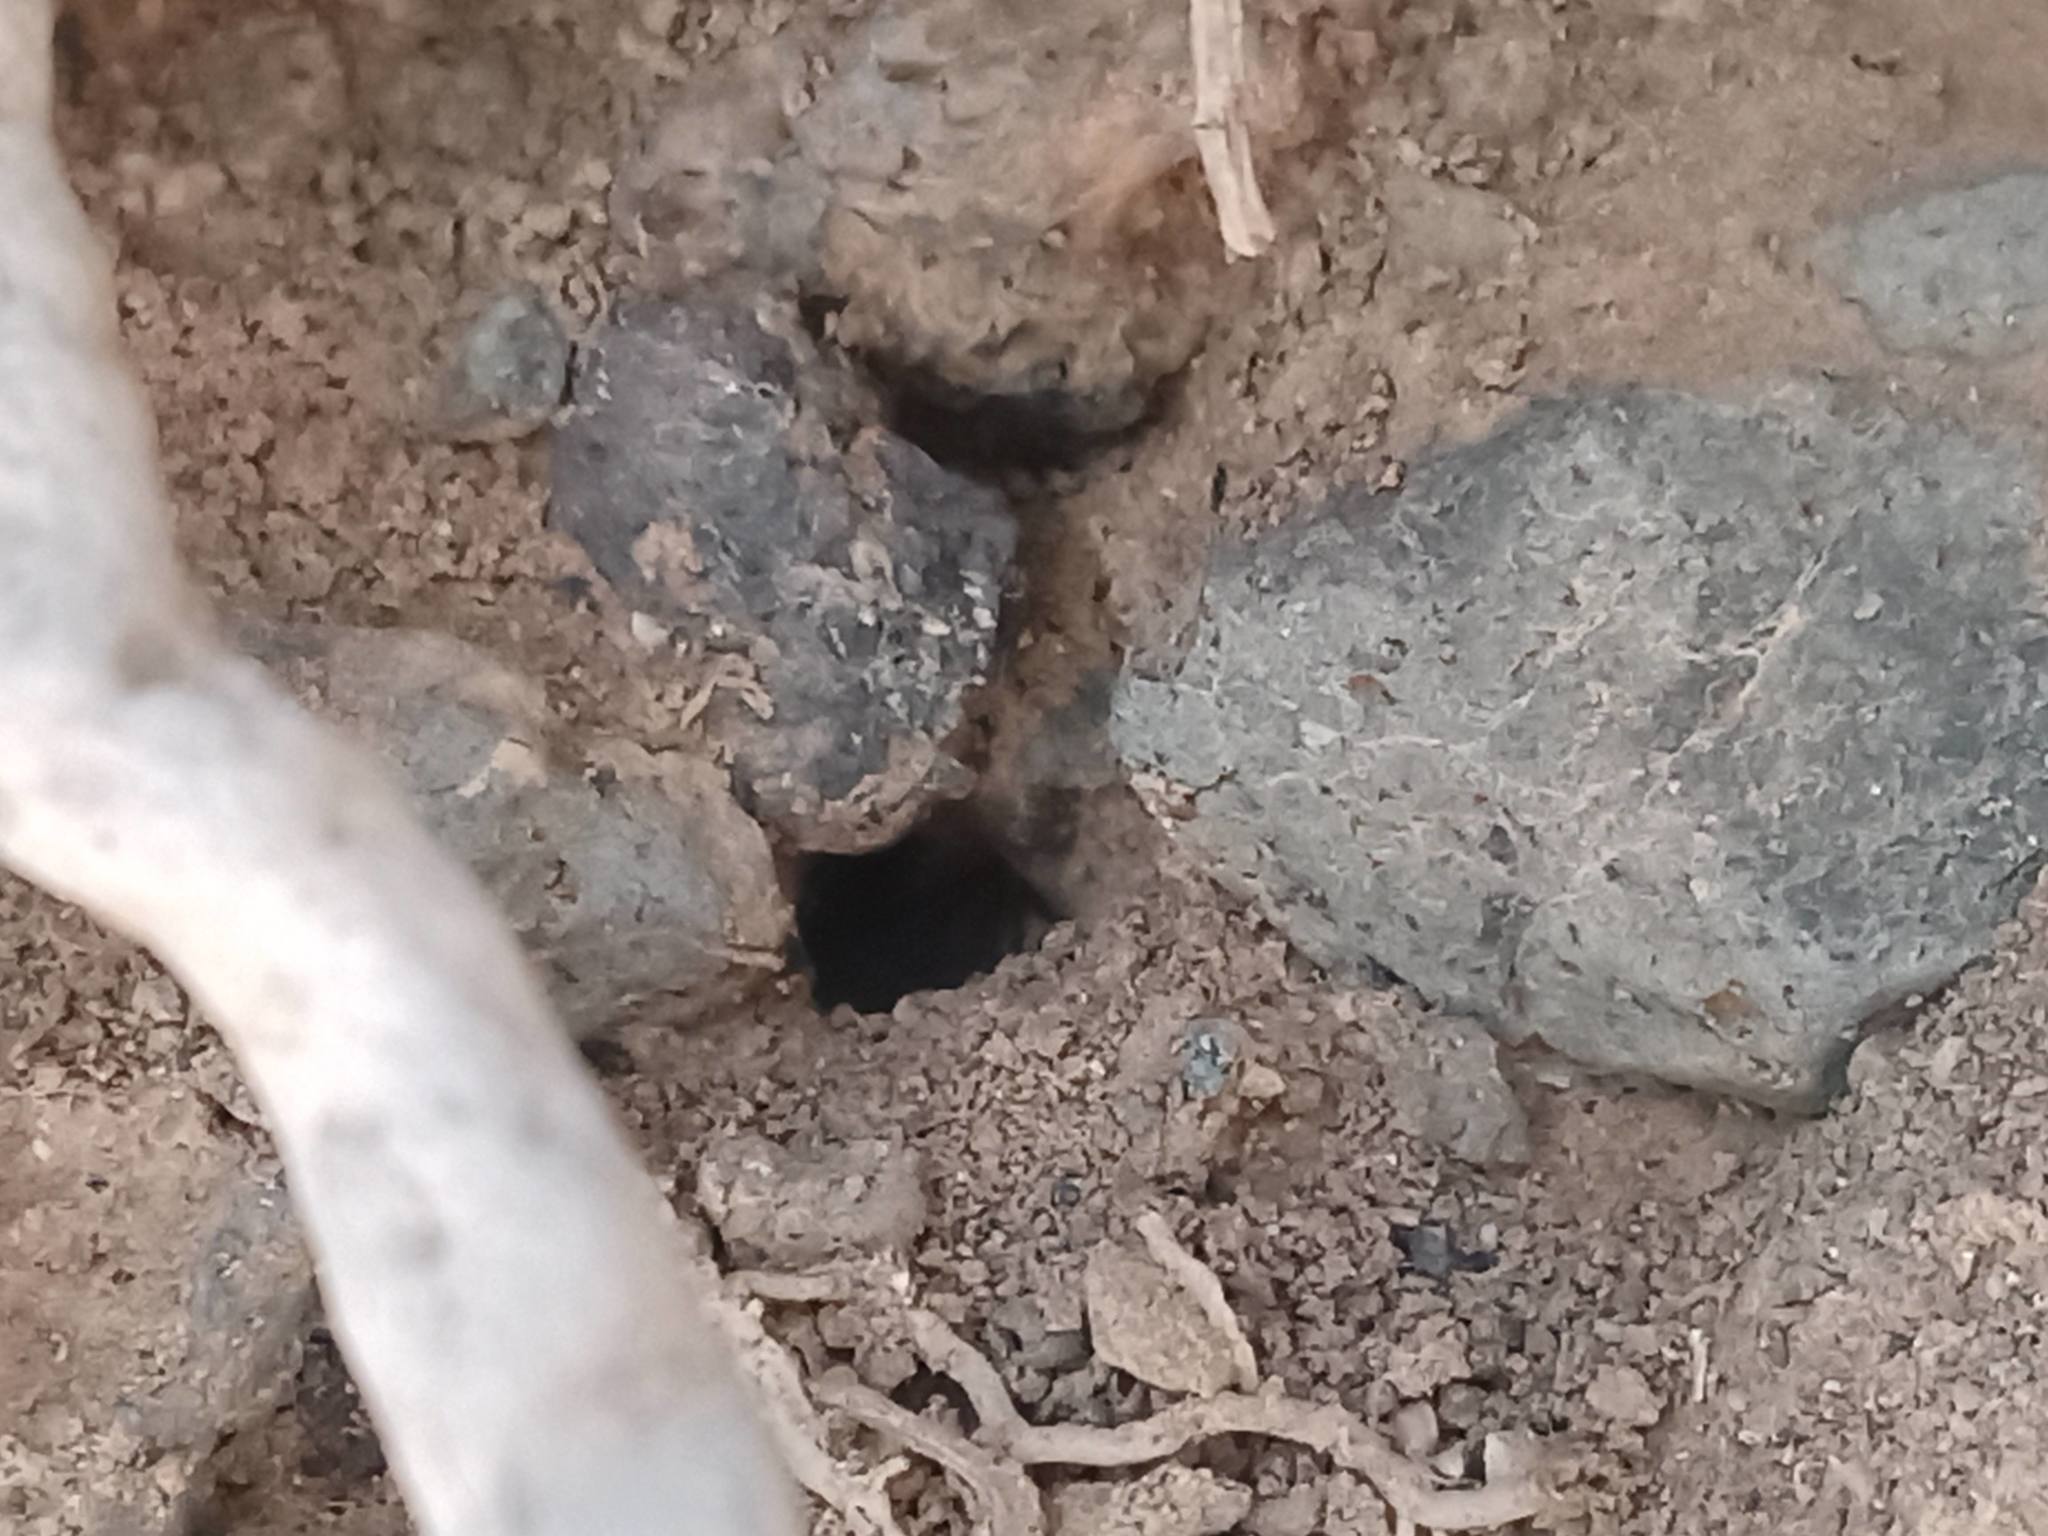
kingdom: Animalia
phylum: Arthropoda
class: Insecta
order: Hymenoptera
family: Colletidae
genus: Colletes
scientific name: Colletes perezi
